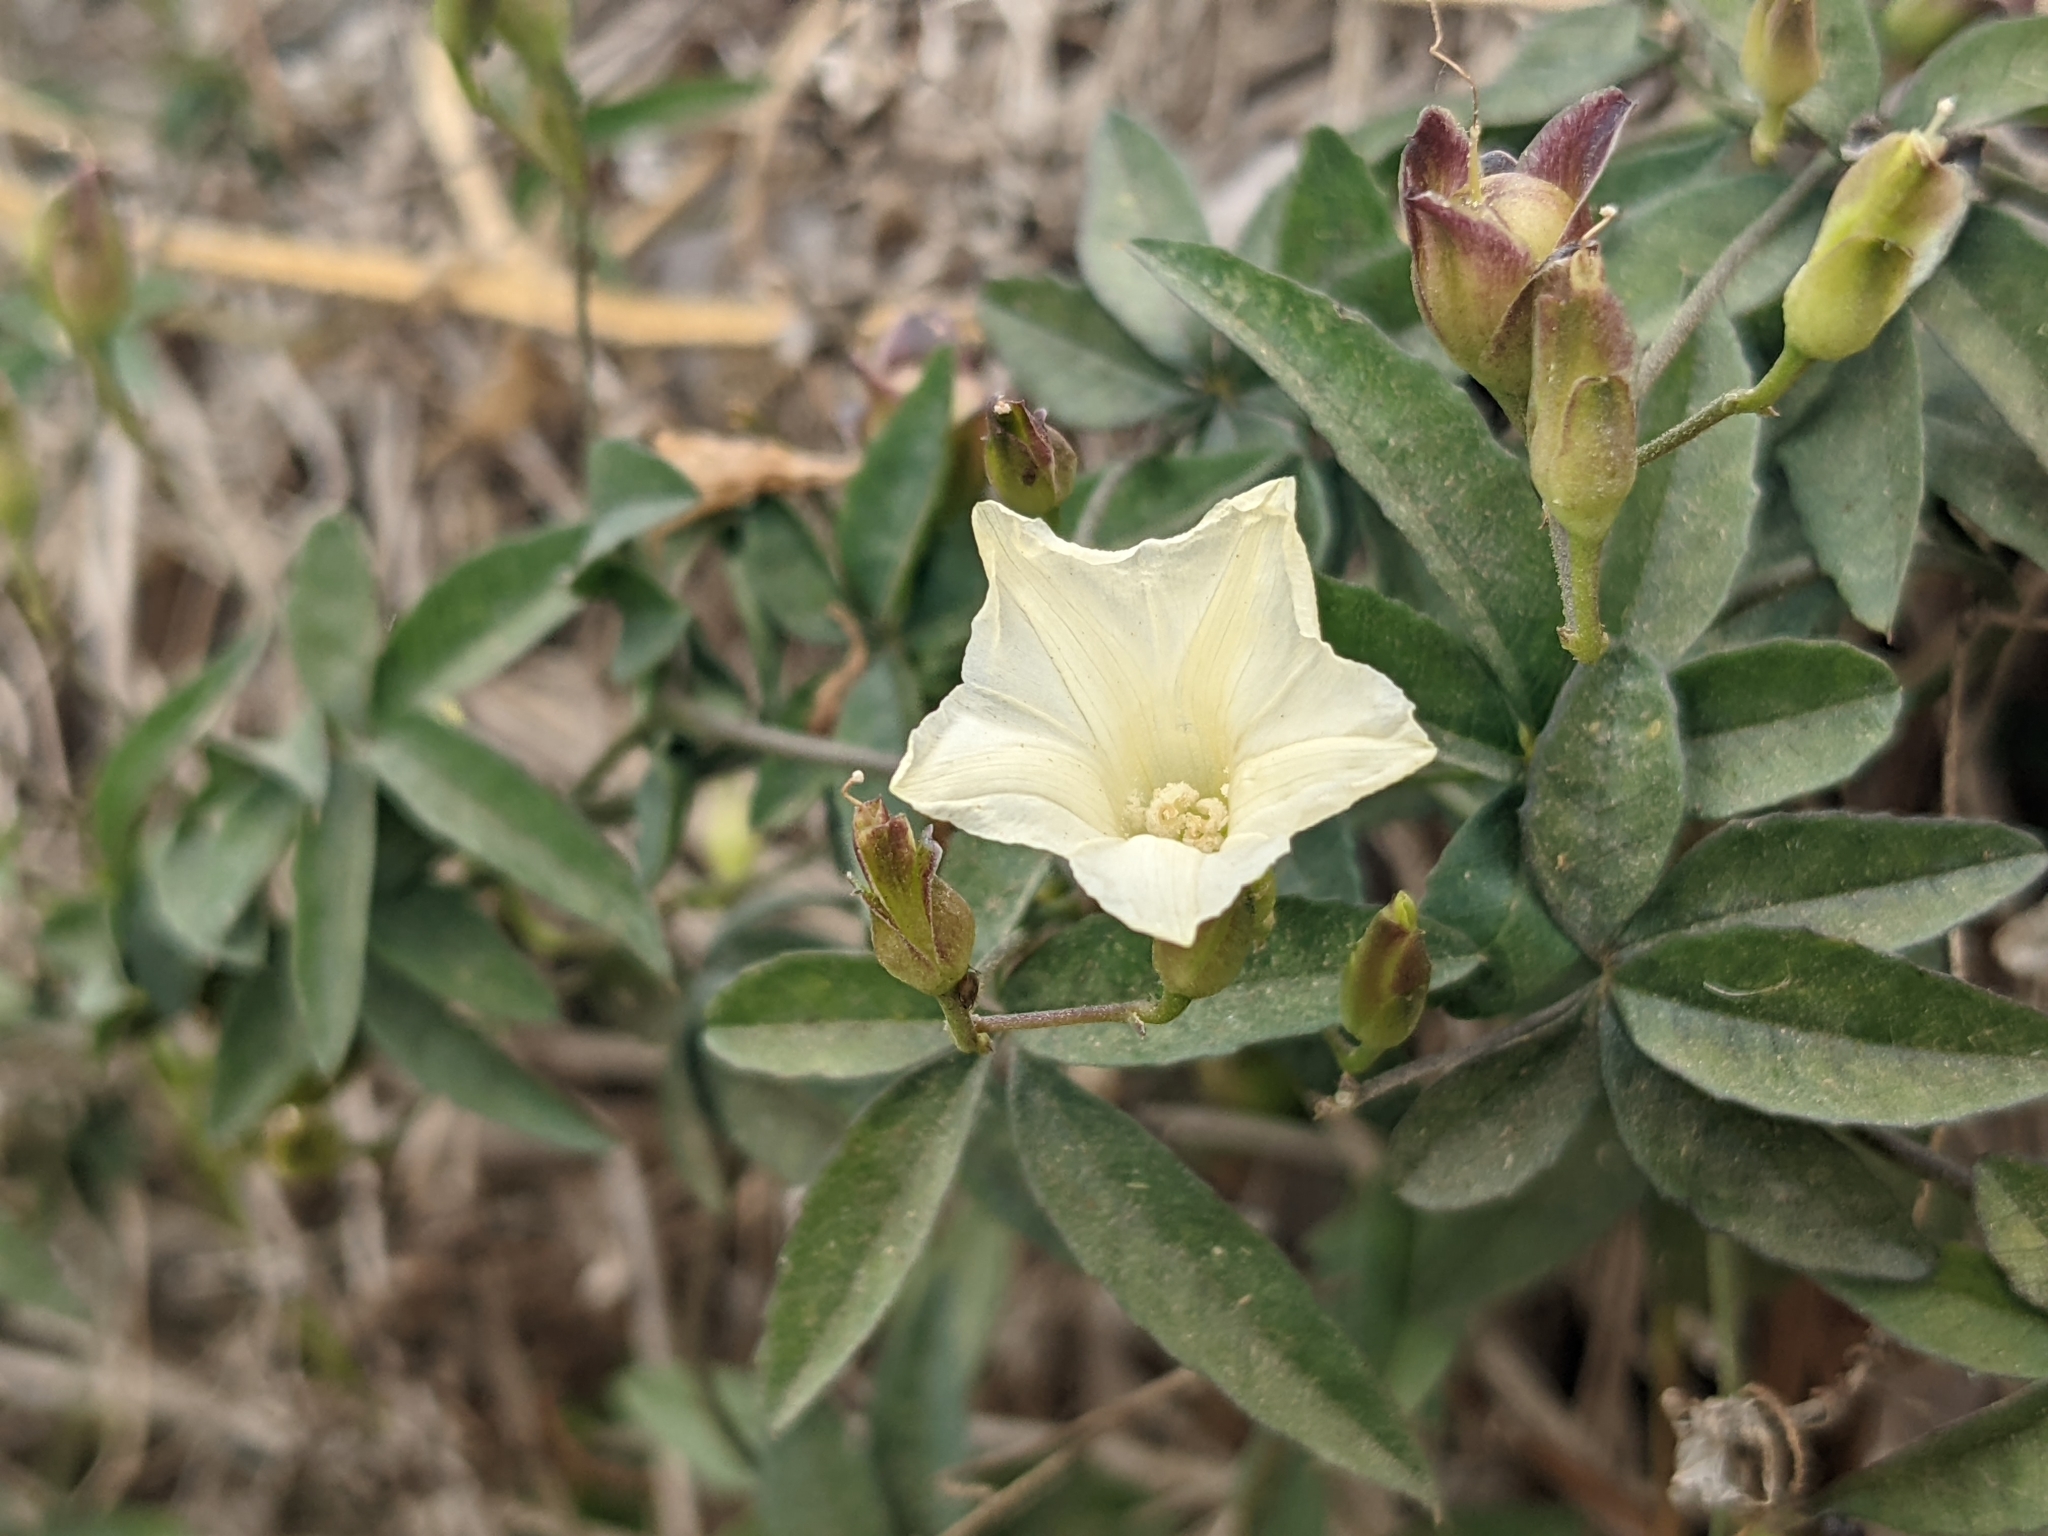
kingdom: Plantae
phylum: Tracheophyta
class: Magnoliopsida
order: Solanales
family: Convolvulaceae
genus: Distimake
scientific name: Distimake quinquefolius
